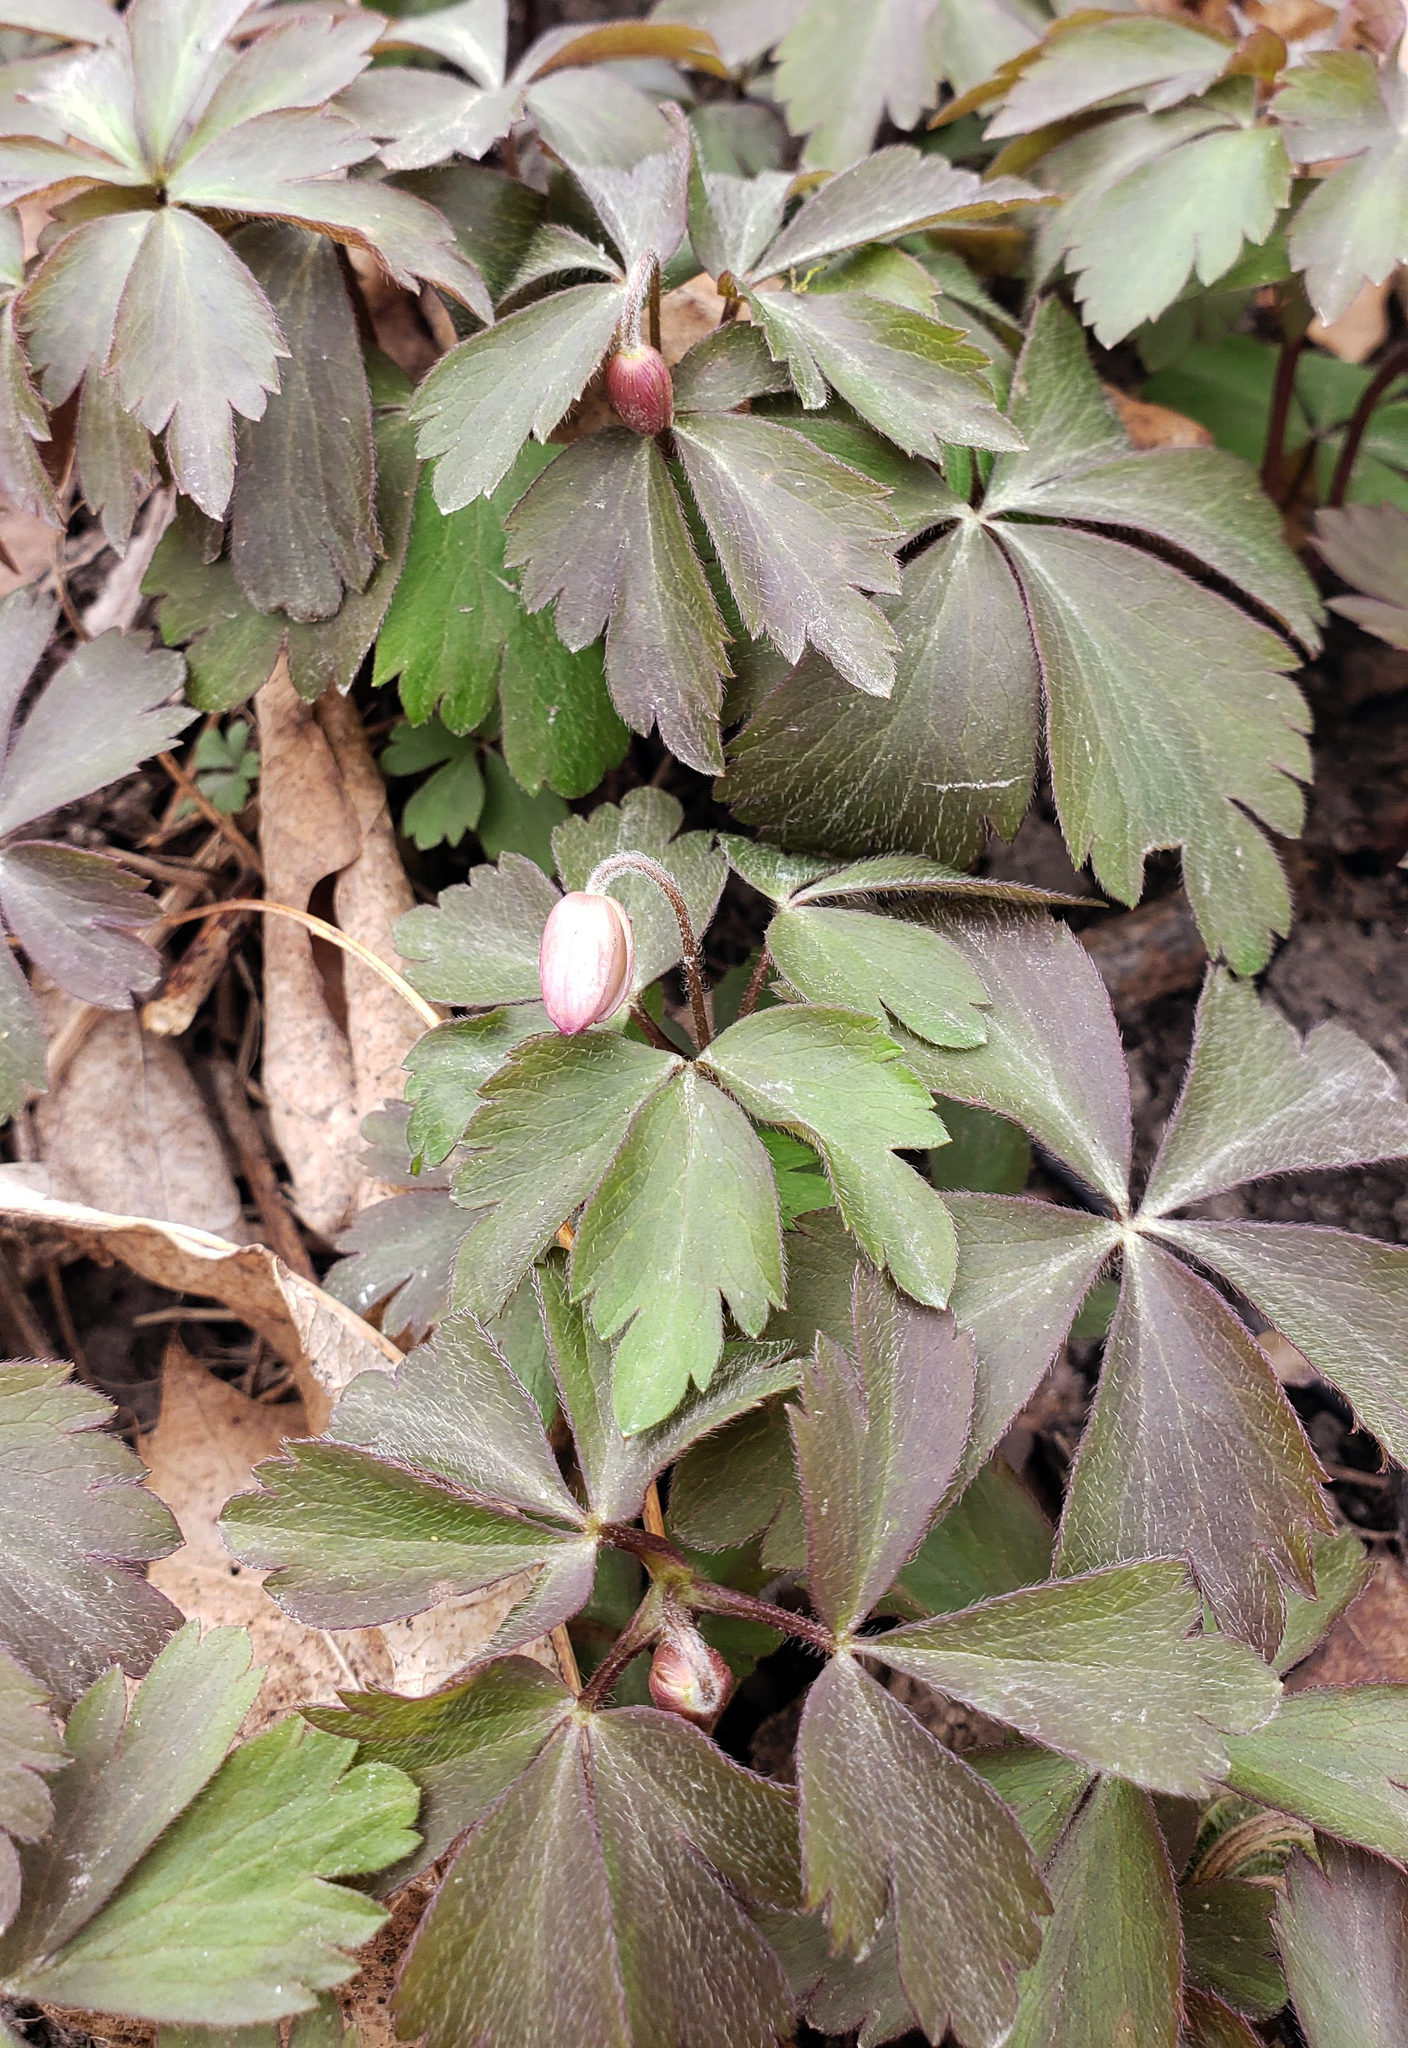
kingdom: Plantae
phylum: Tracheophyta
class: Magnoliopsida
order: Ranunculales
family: Ranunculaceae
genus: Anemone
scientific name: Anemone quinquefolia
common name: Wood anemone
